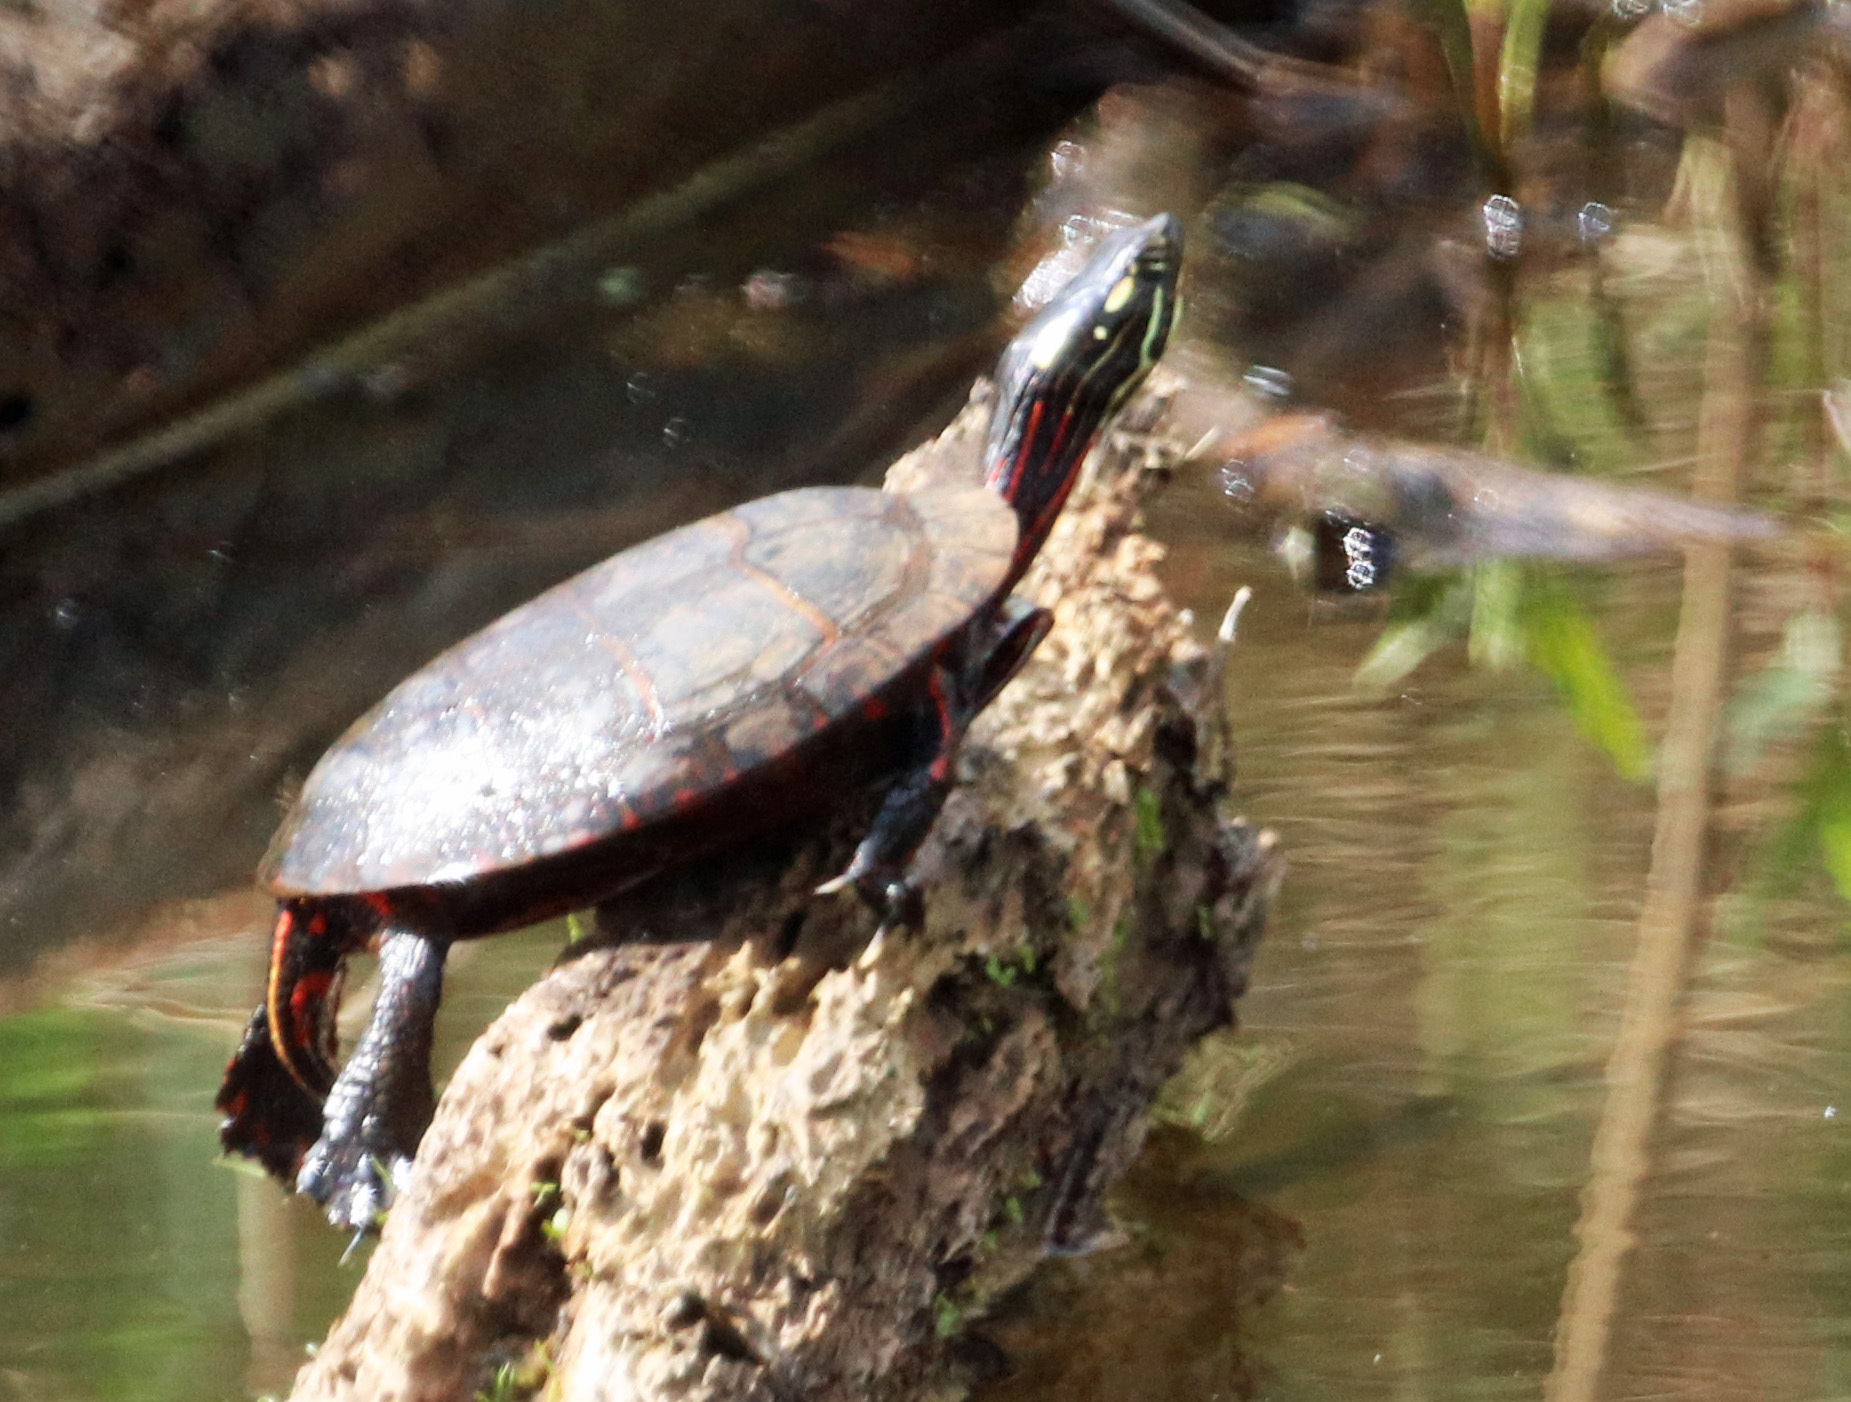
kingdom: Animalia
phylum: Chordata
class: Testudines
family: Emydidae
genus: Chrysemys
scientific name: Chrysemys picta
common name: Painted turtle
